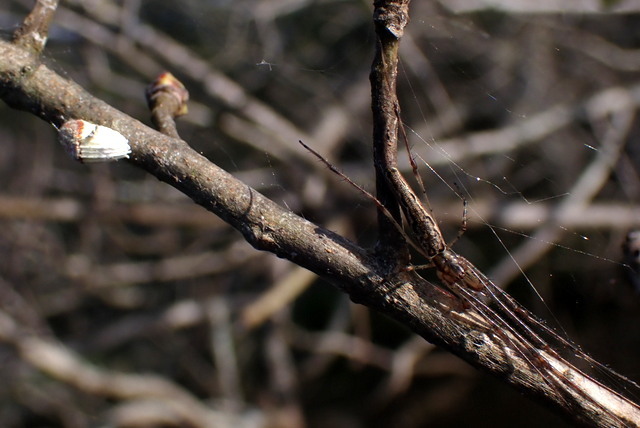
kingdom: Animalia
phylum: Arthropoda
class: Insecta
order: Hemiptera
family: Margarodidae
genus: Icerya
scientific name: Icerya purchasi
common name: Cottony cushion scale
